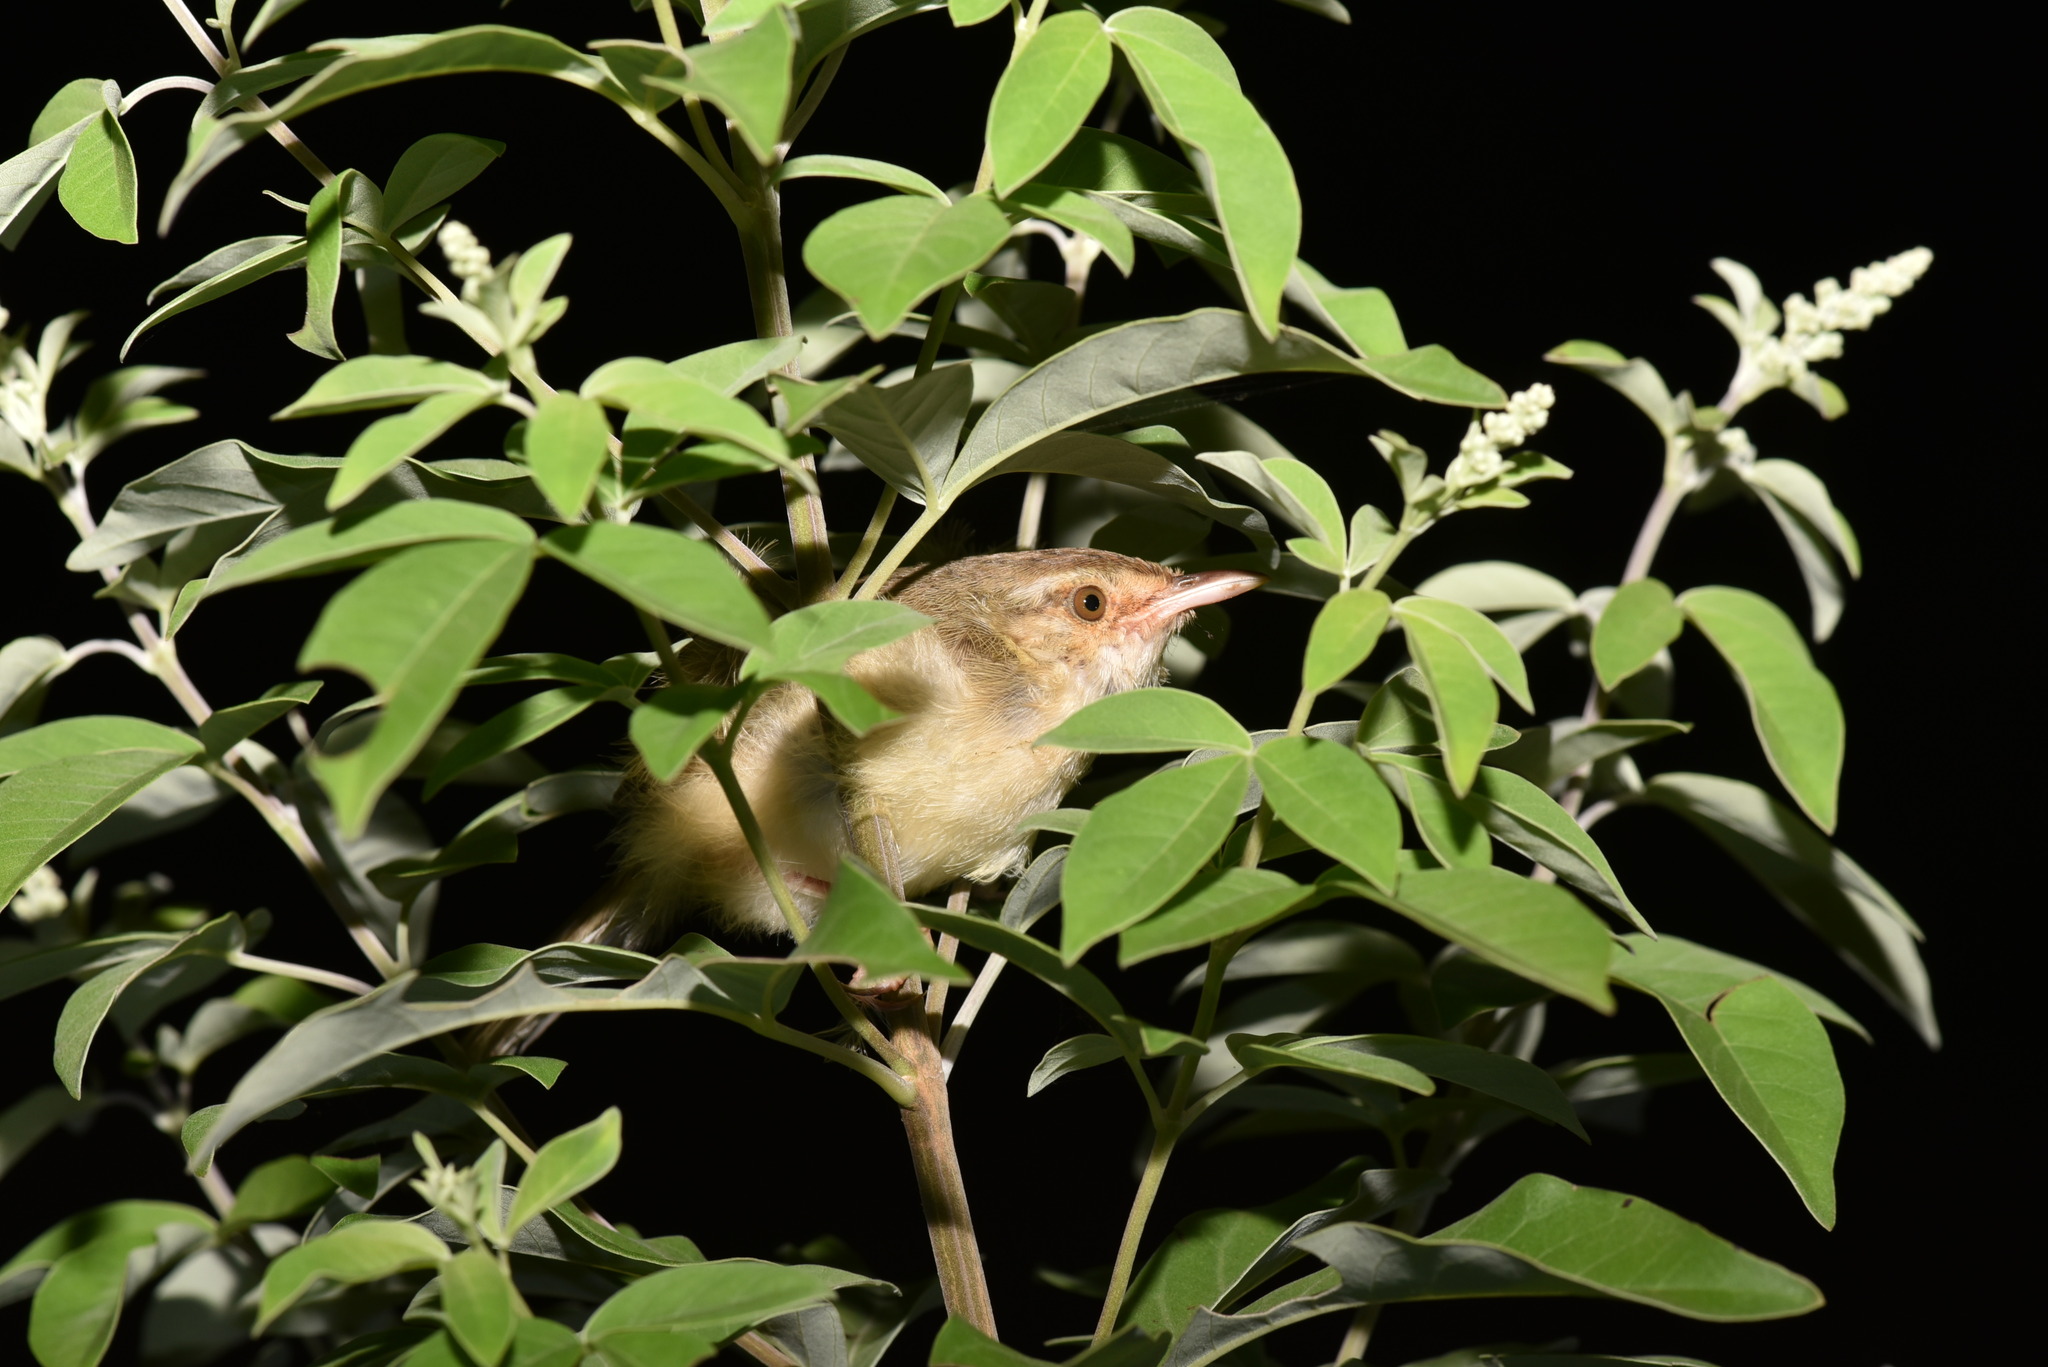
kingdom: Animalia
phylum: Chordata
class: Aves
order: Passeriformes
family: Cisticolidae
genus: Prinia
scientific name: Prinia inornata
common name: Plain prinia
